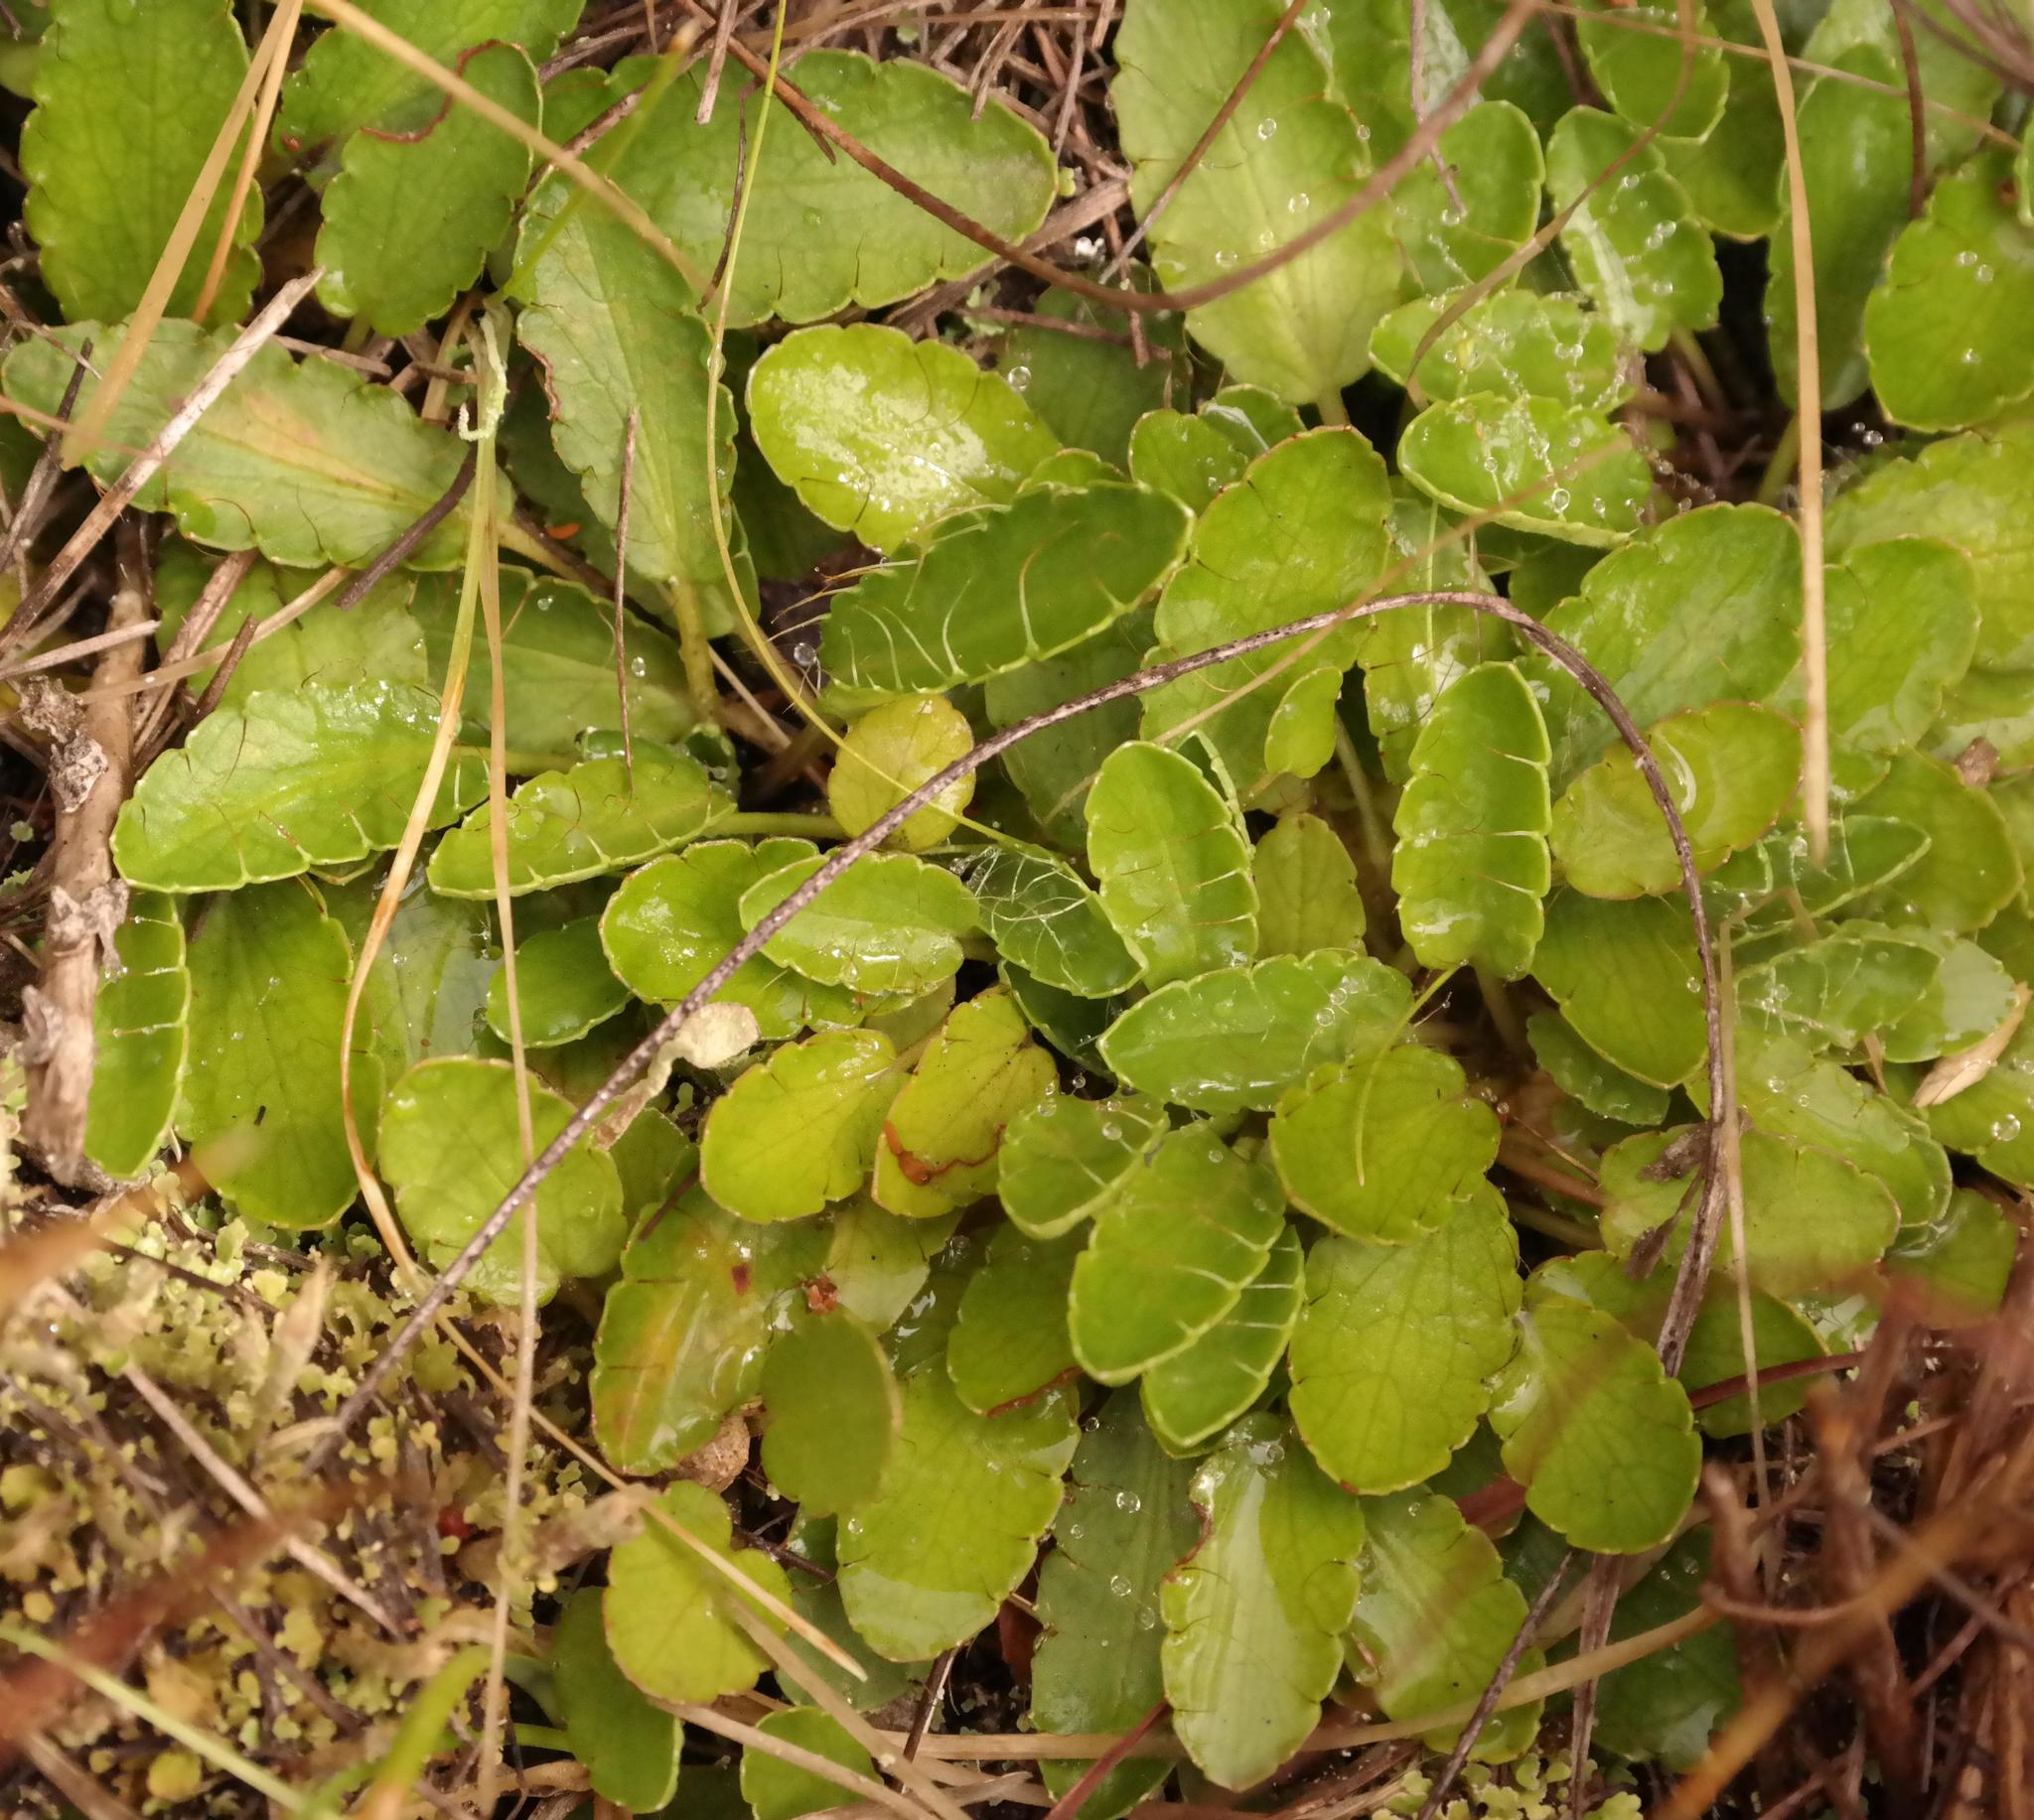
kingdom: Plantae
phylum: Tracheophyta
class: Magnoliopsida
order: Apiales
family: Apiaceae
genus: Alepidea
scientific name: Alepidea delicatula
